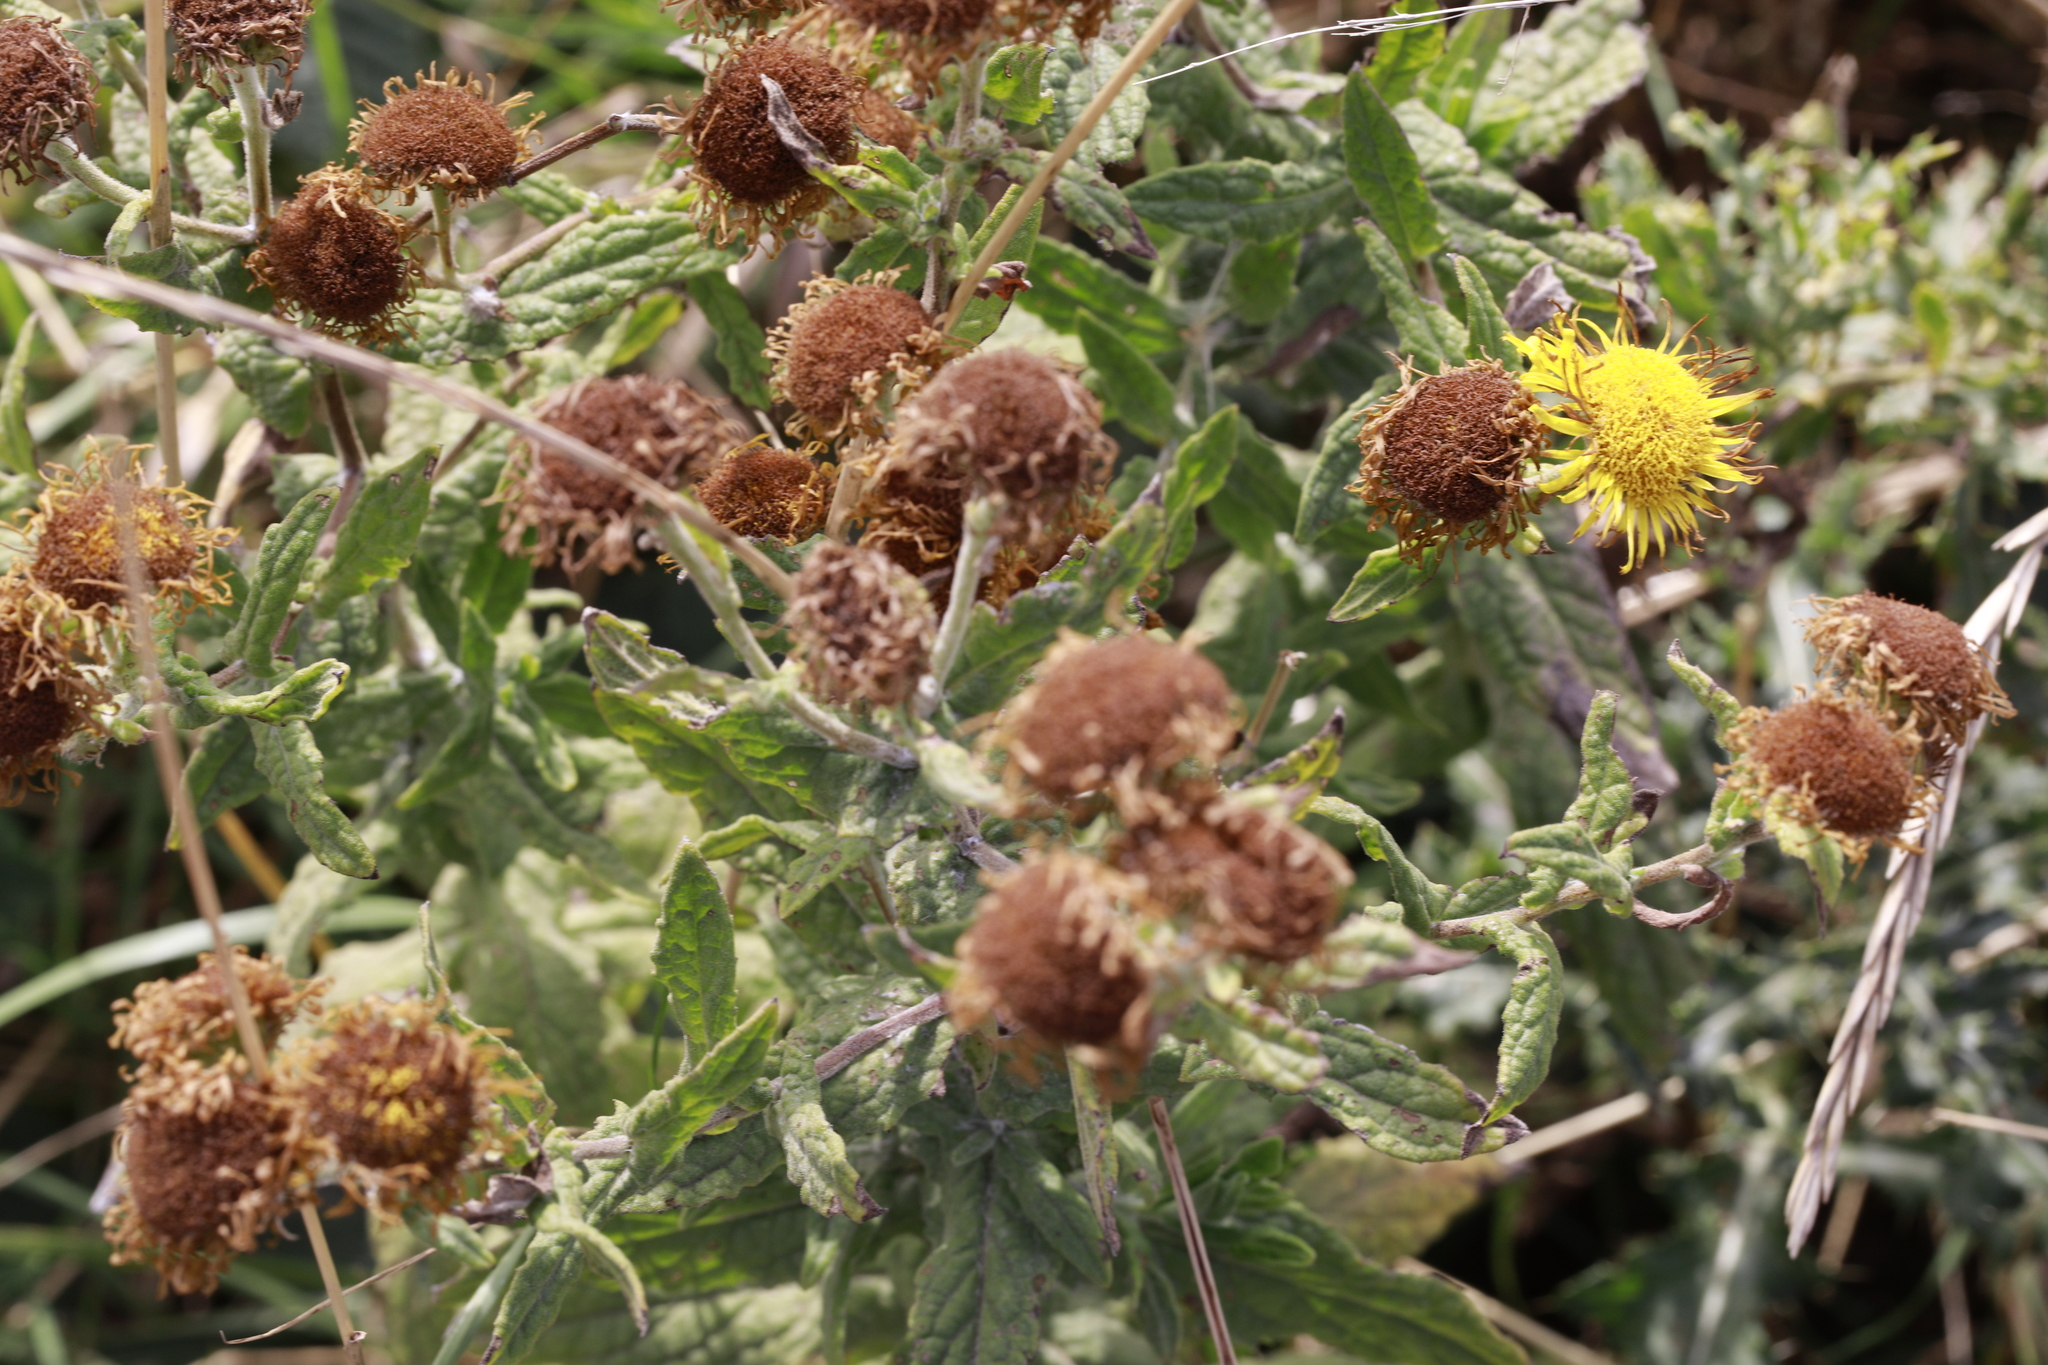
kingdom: Plantae
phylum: Tracheophyta
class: Magnoliopsida
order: Asterales
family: Asteraceae
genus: Pulicaria
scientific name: Pulicaria dysenterica
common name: Common fleabane
